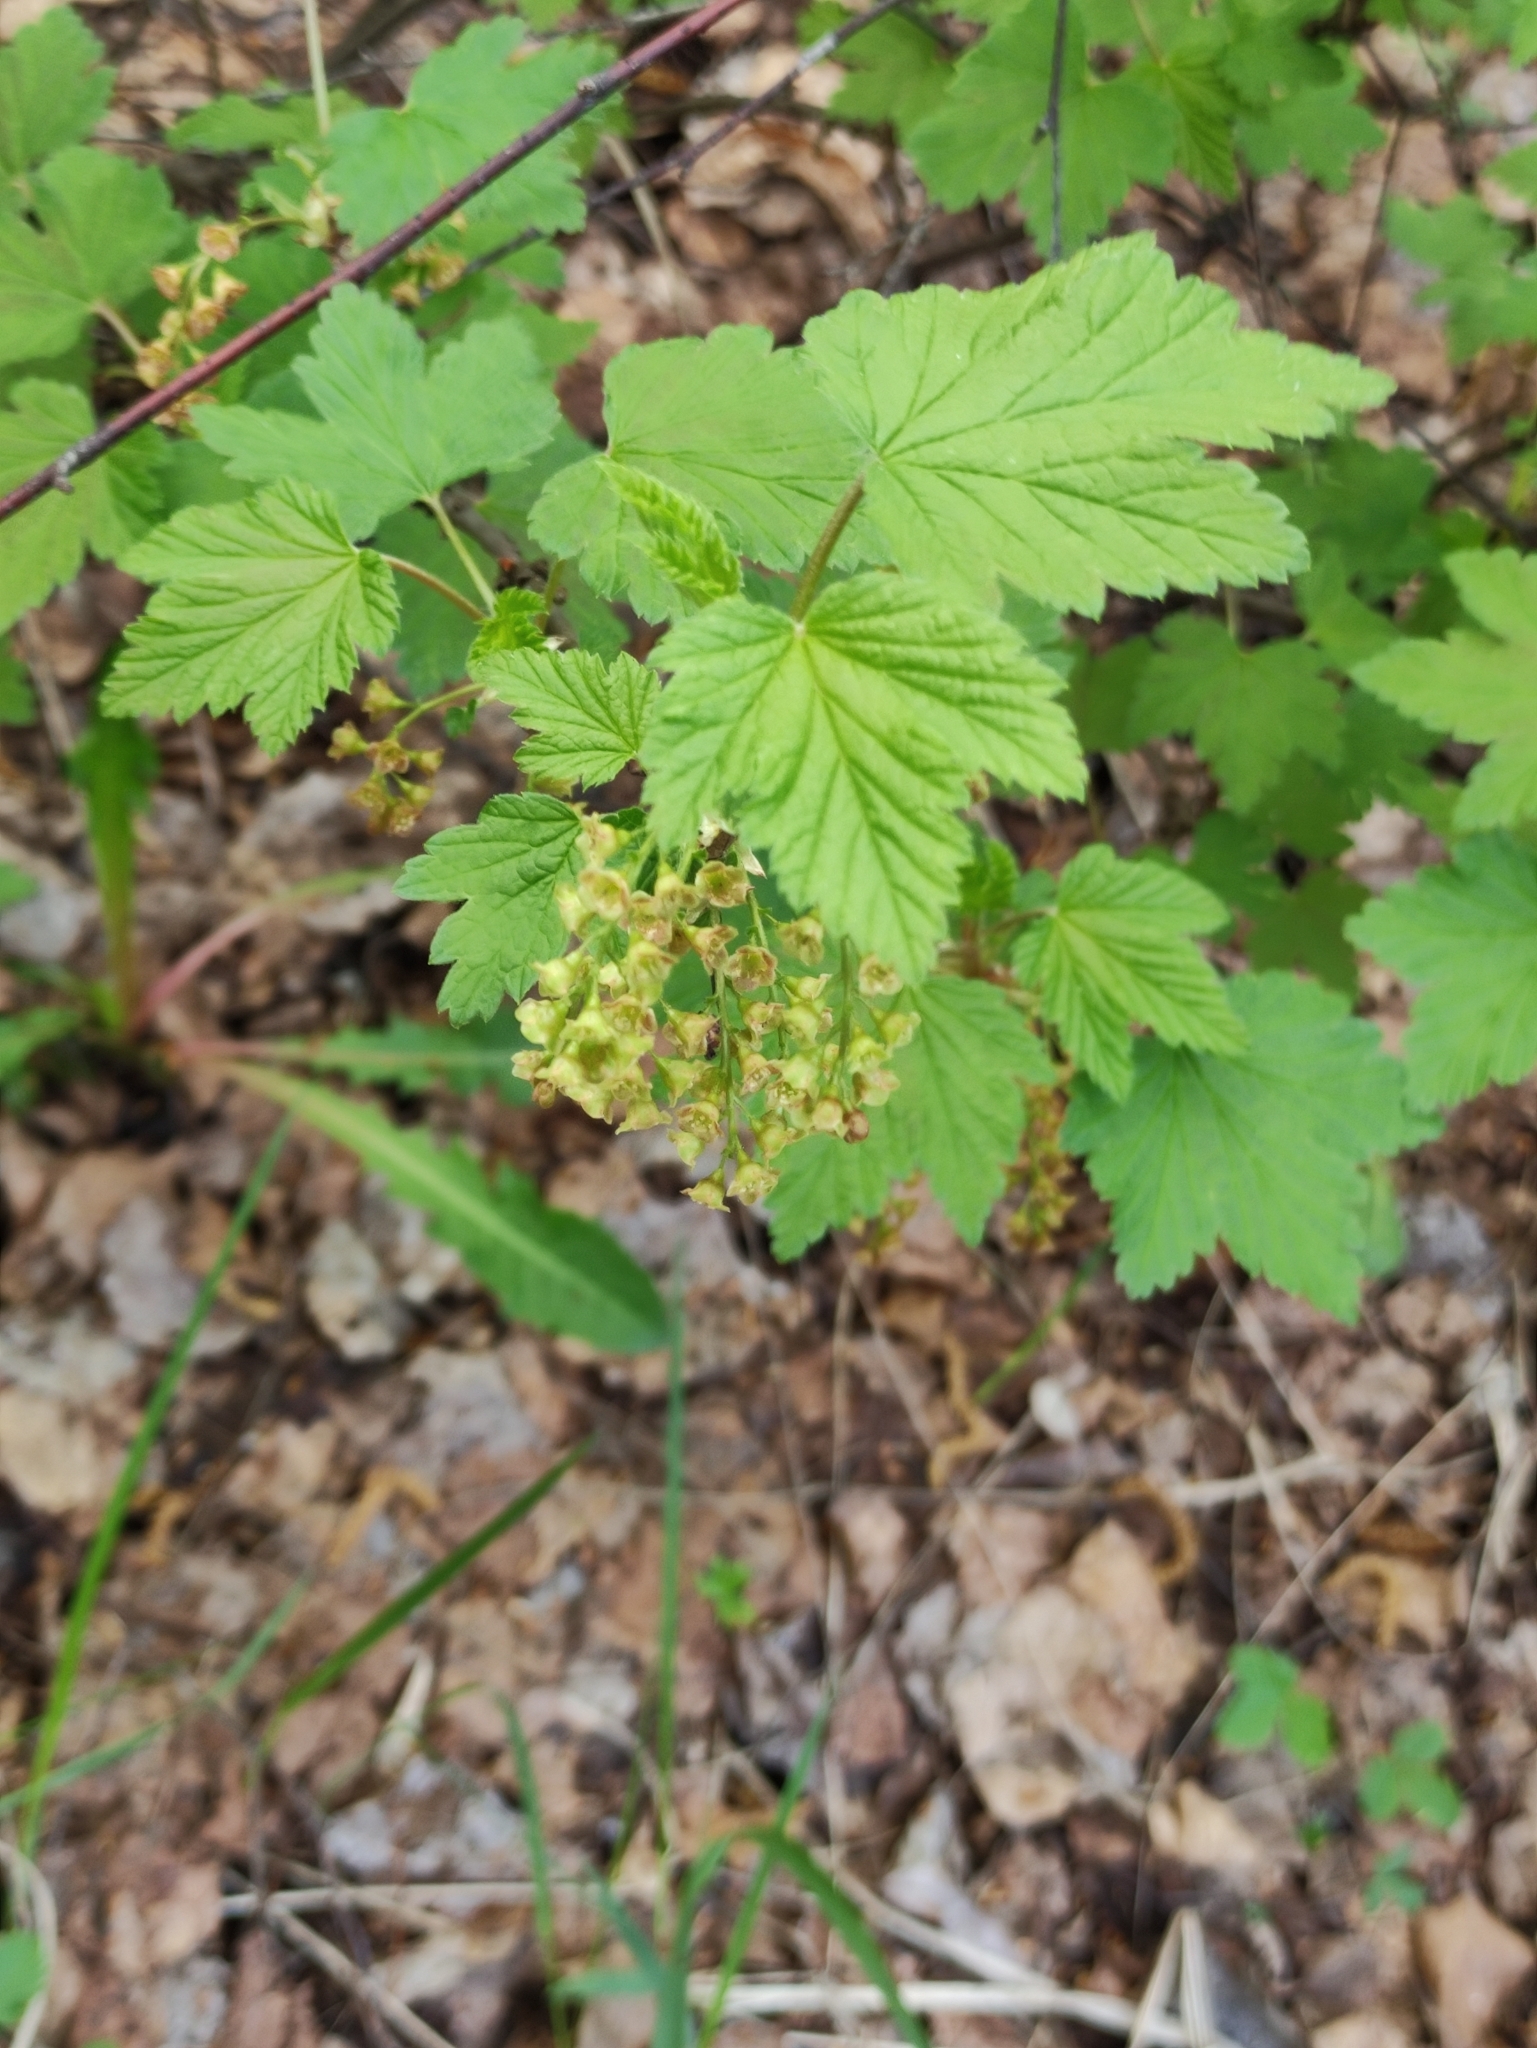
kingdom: Plantae
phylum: Tracheophyta
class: Magnoliopsida
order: Saxifragales
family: Grossulariaceae
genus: Ribes
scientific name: Ribes rubrum
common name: Red currant
